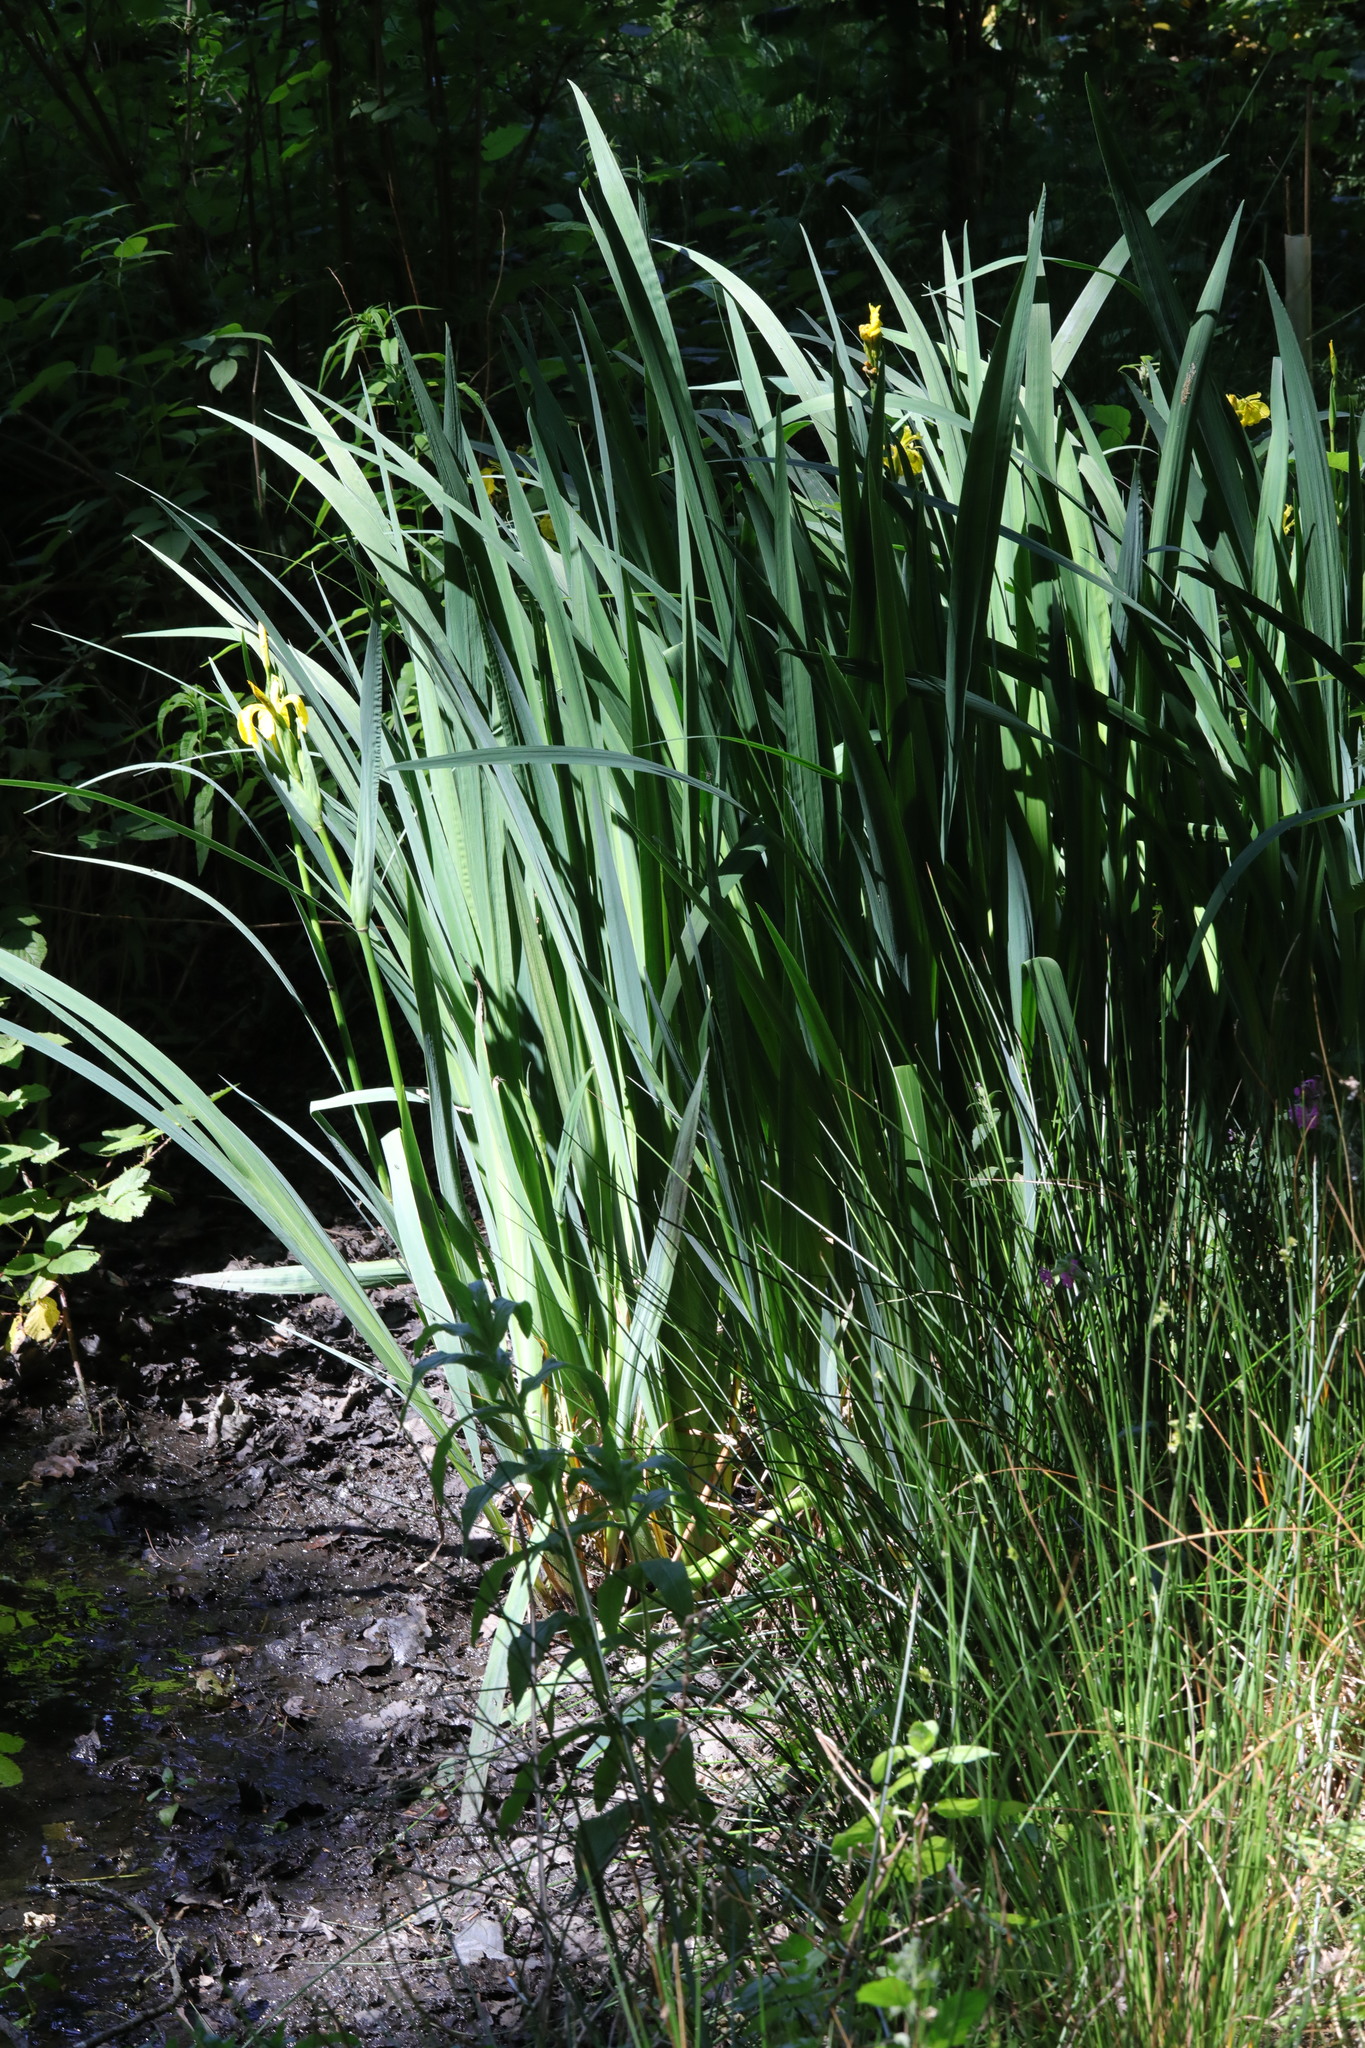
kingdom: Plantae
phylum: Tracheophyta
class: Liliopsida
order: Asparagales
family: Iridaceae
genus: Iris
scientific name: Iris pseudacorus
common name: Yellow flag
